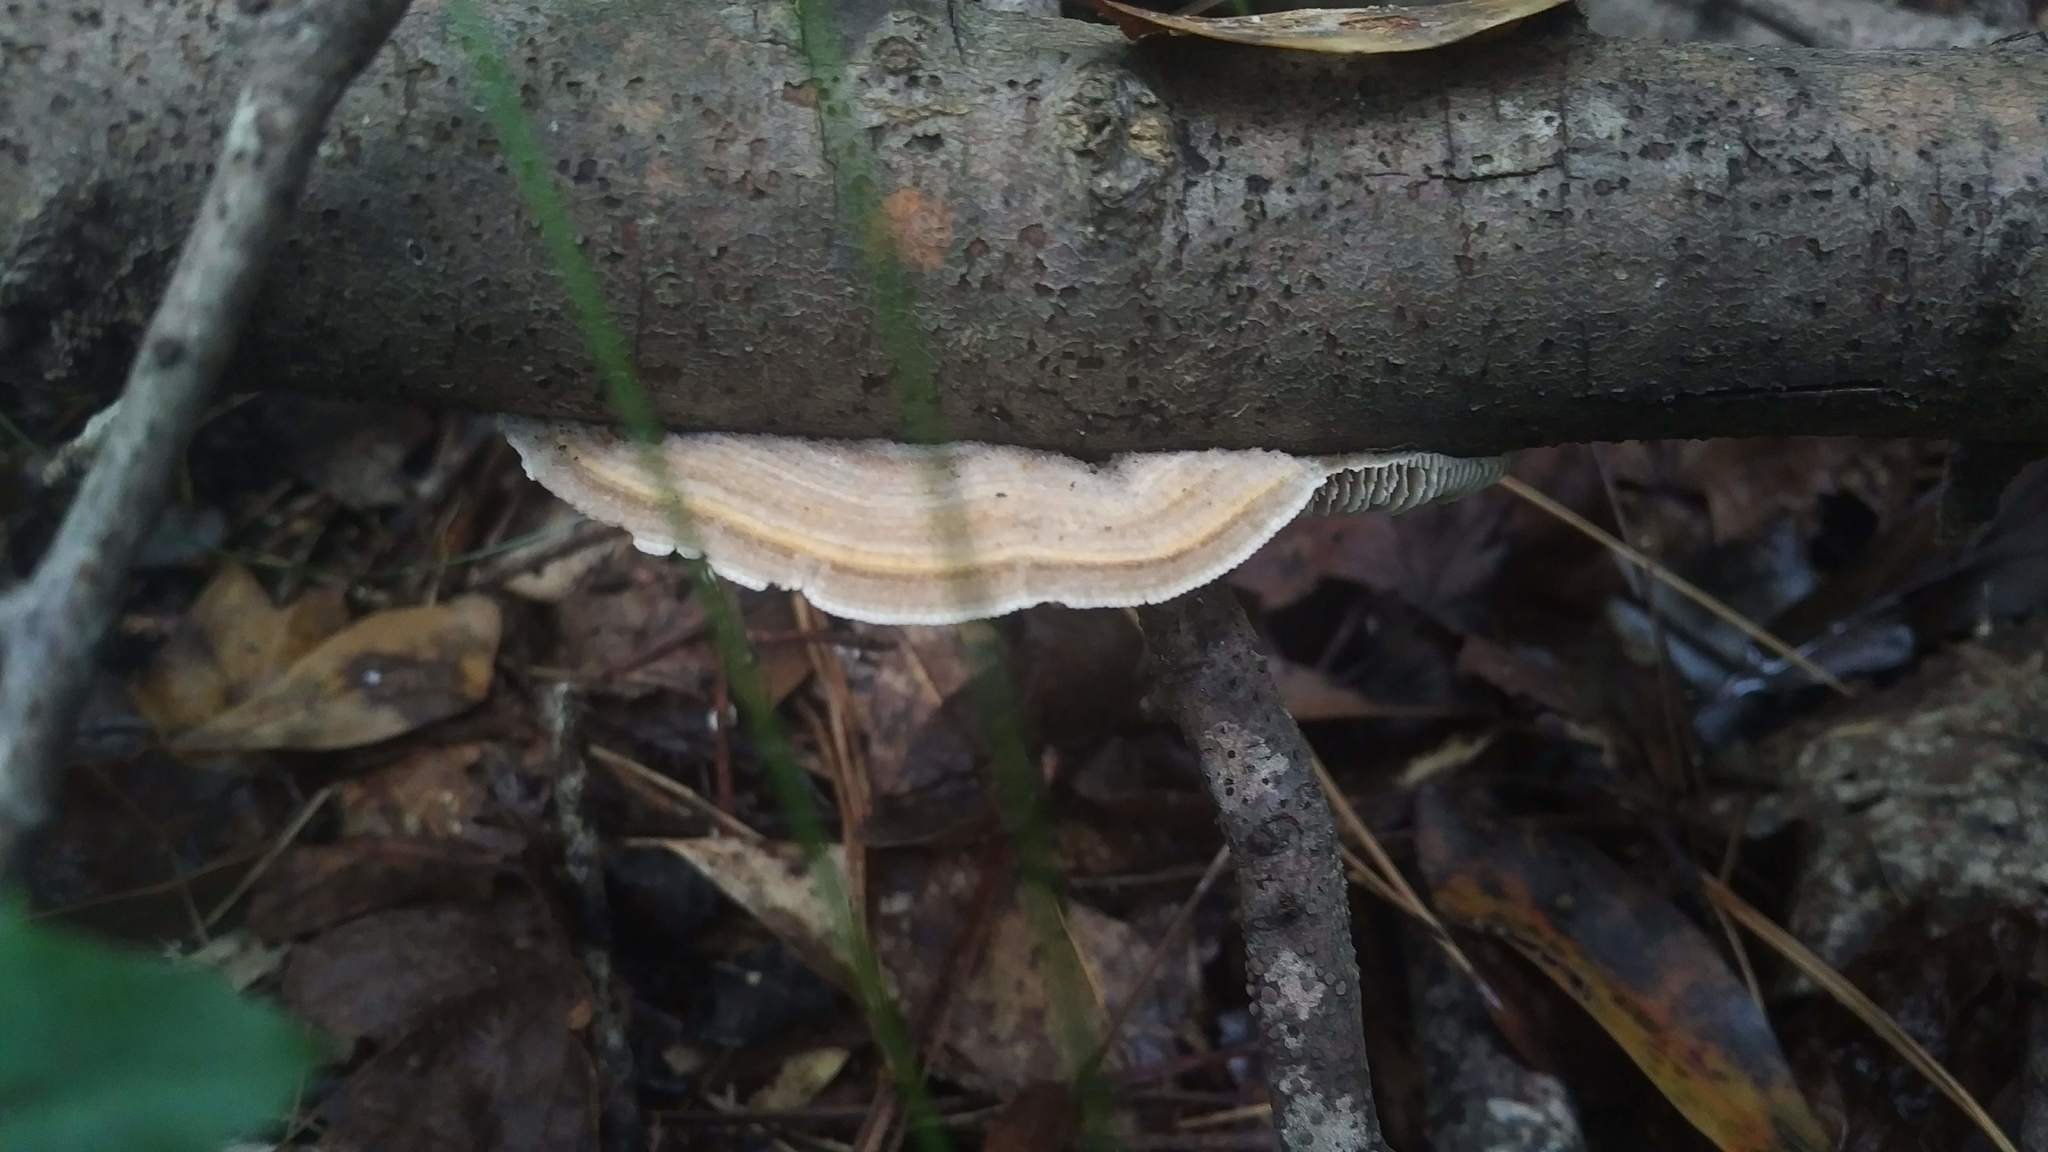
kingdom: Fungi
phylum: Basidiomycota
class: Agaricomycetes
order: Polyporales
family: Polyporaceae
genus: Lenzites
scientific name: Lenzites betulinus
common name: Birch mazegill
